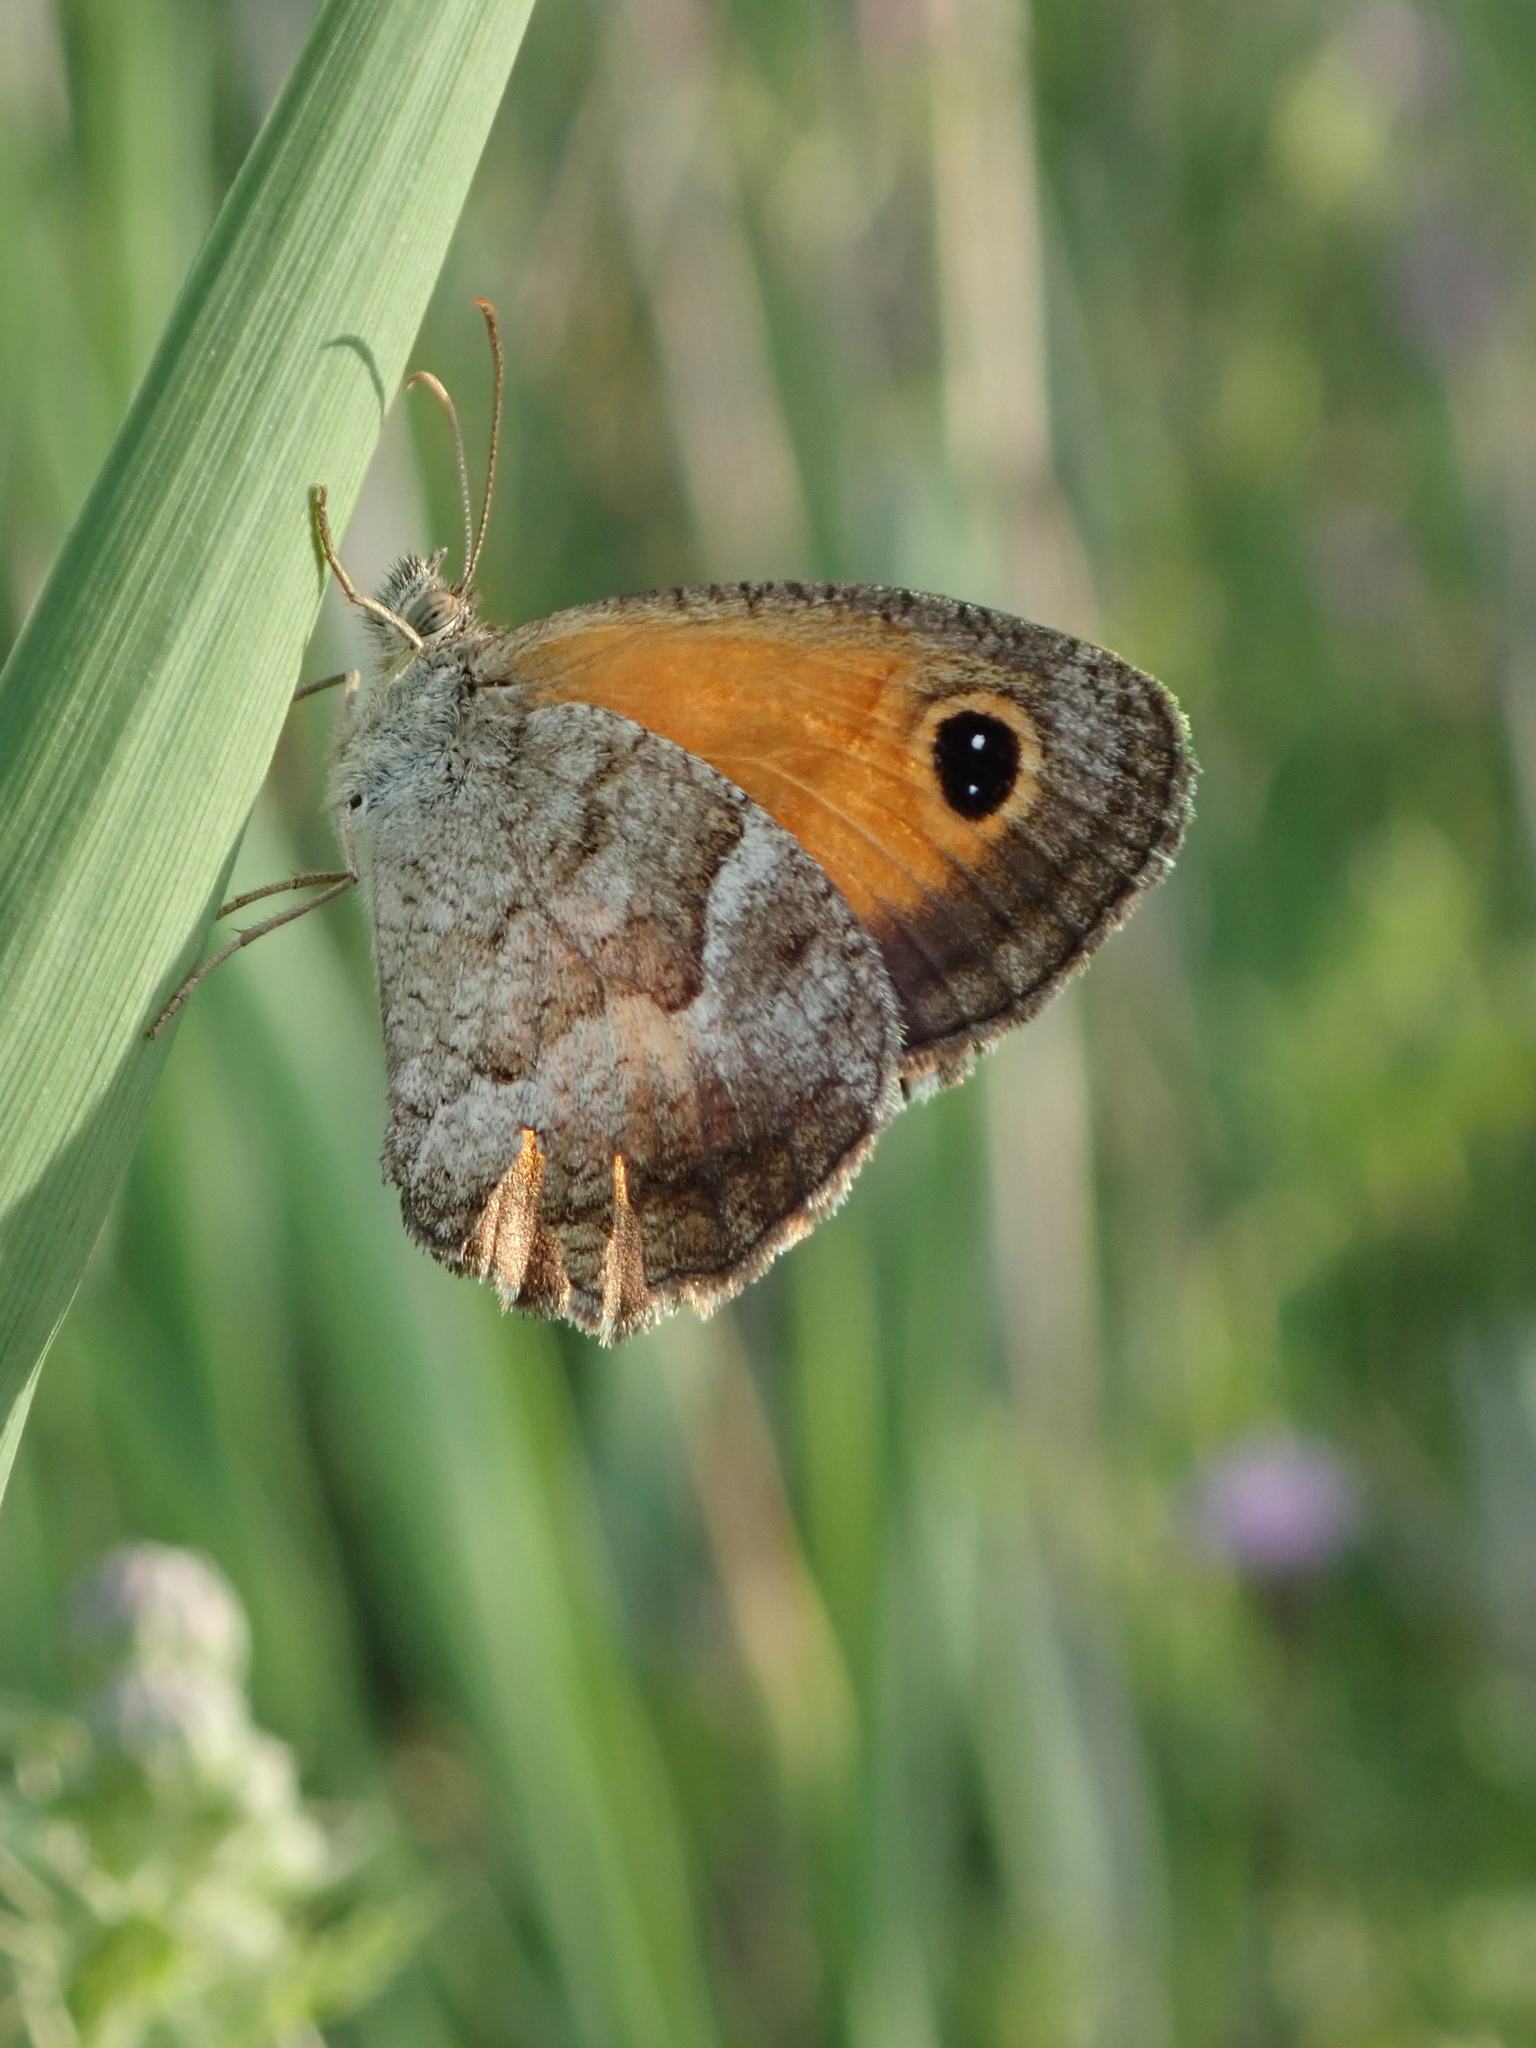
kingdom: Animalia
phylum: Arthropoda
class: Insecta
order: Lepidoptera
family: Nymphalidae
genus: Pyronia
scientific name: Pyronia cecilia
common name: Southern gatekeeper
